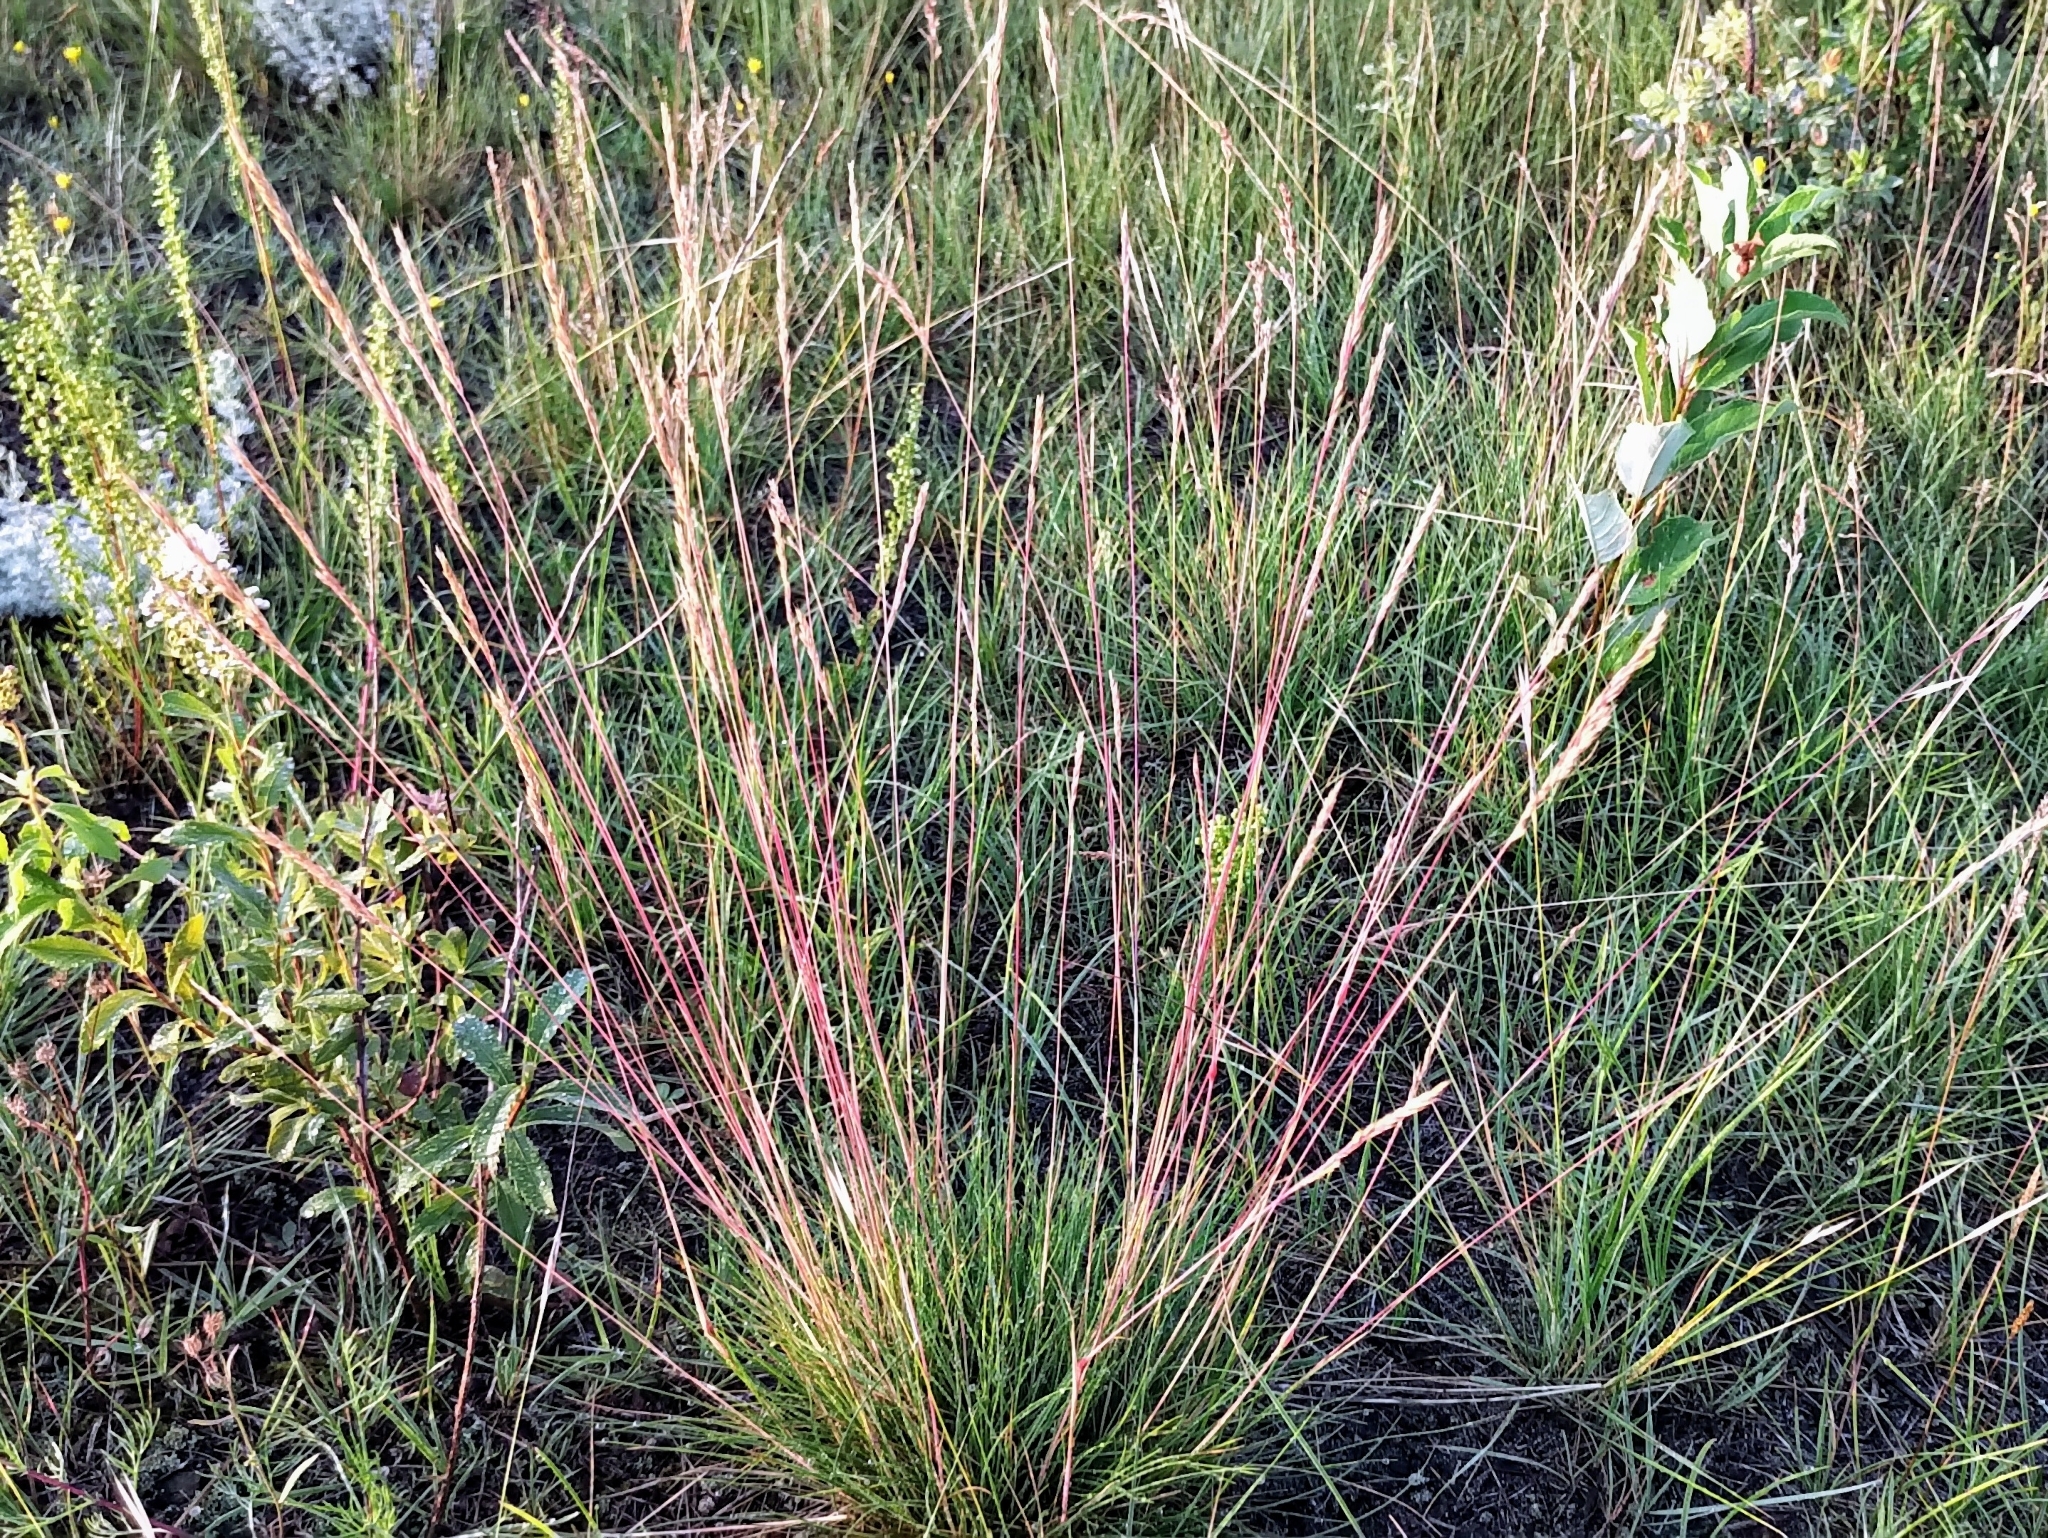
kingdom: Plantae
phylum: Tracheophyta
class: Liliopsida
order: Poales
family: Poaceae
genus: Festuca
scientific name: Festuca saximontana
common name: Mountain fescue
